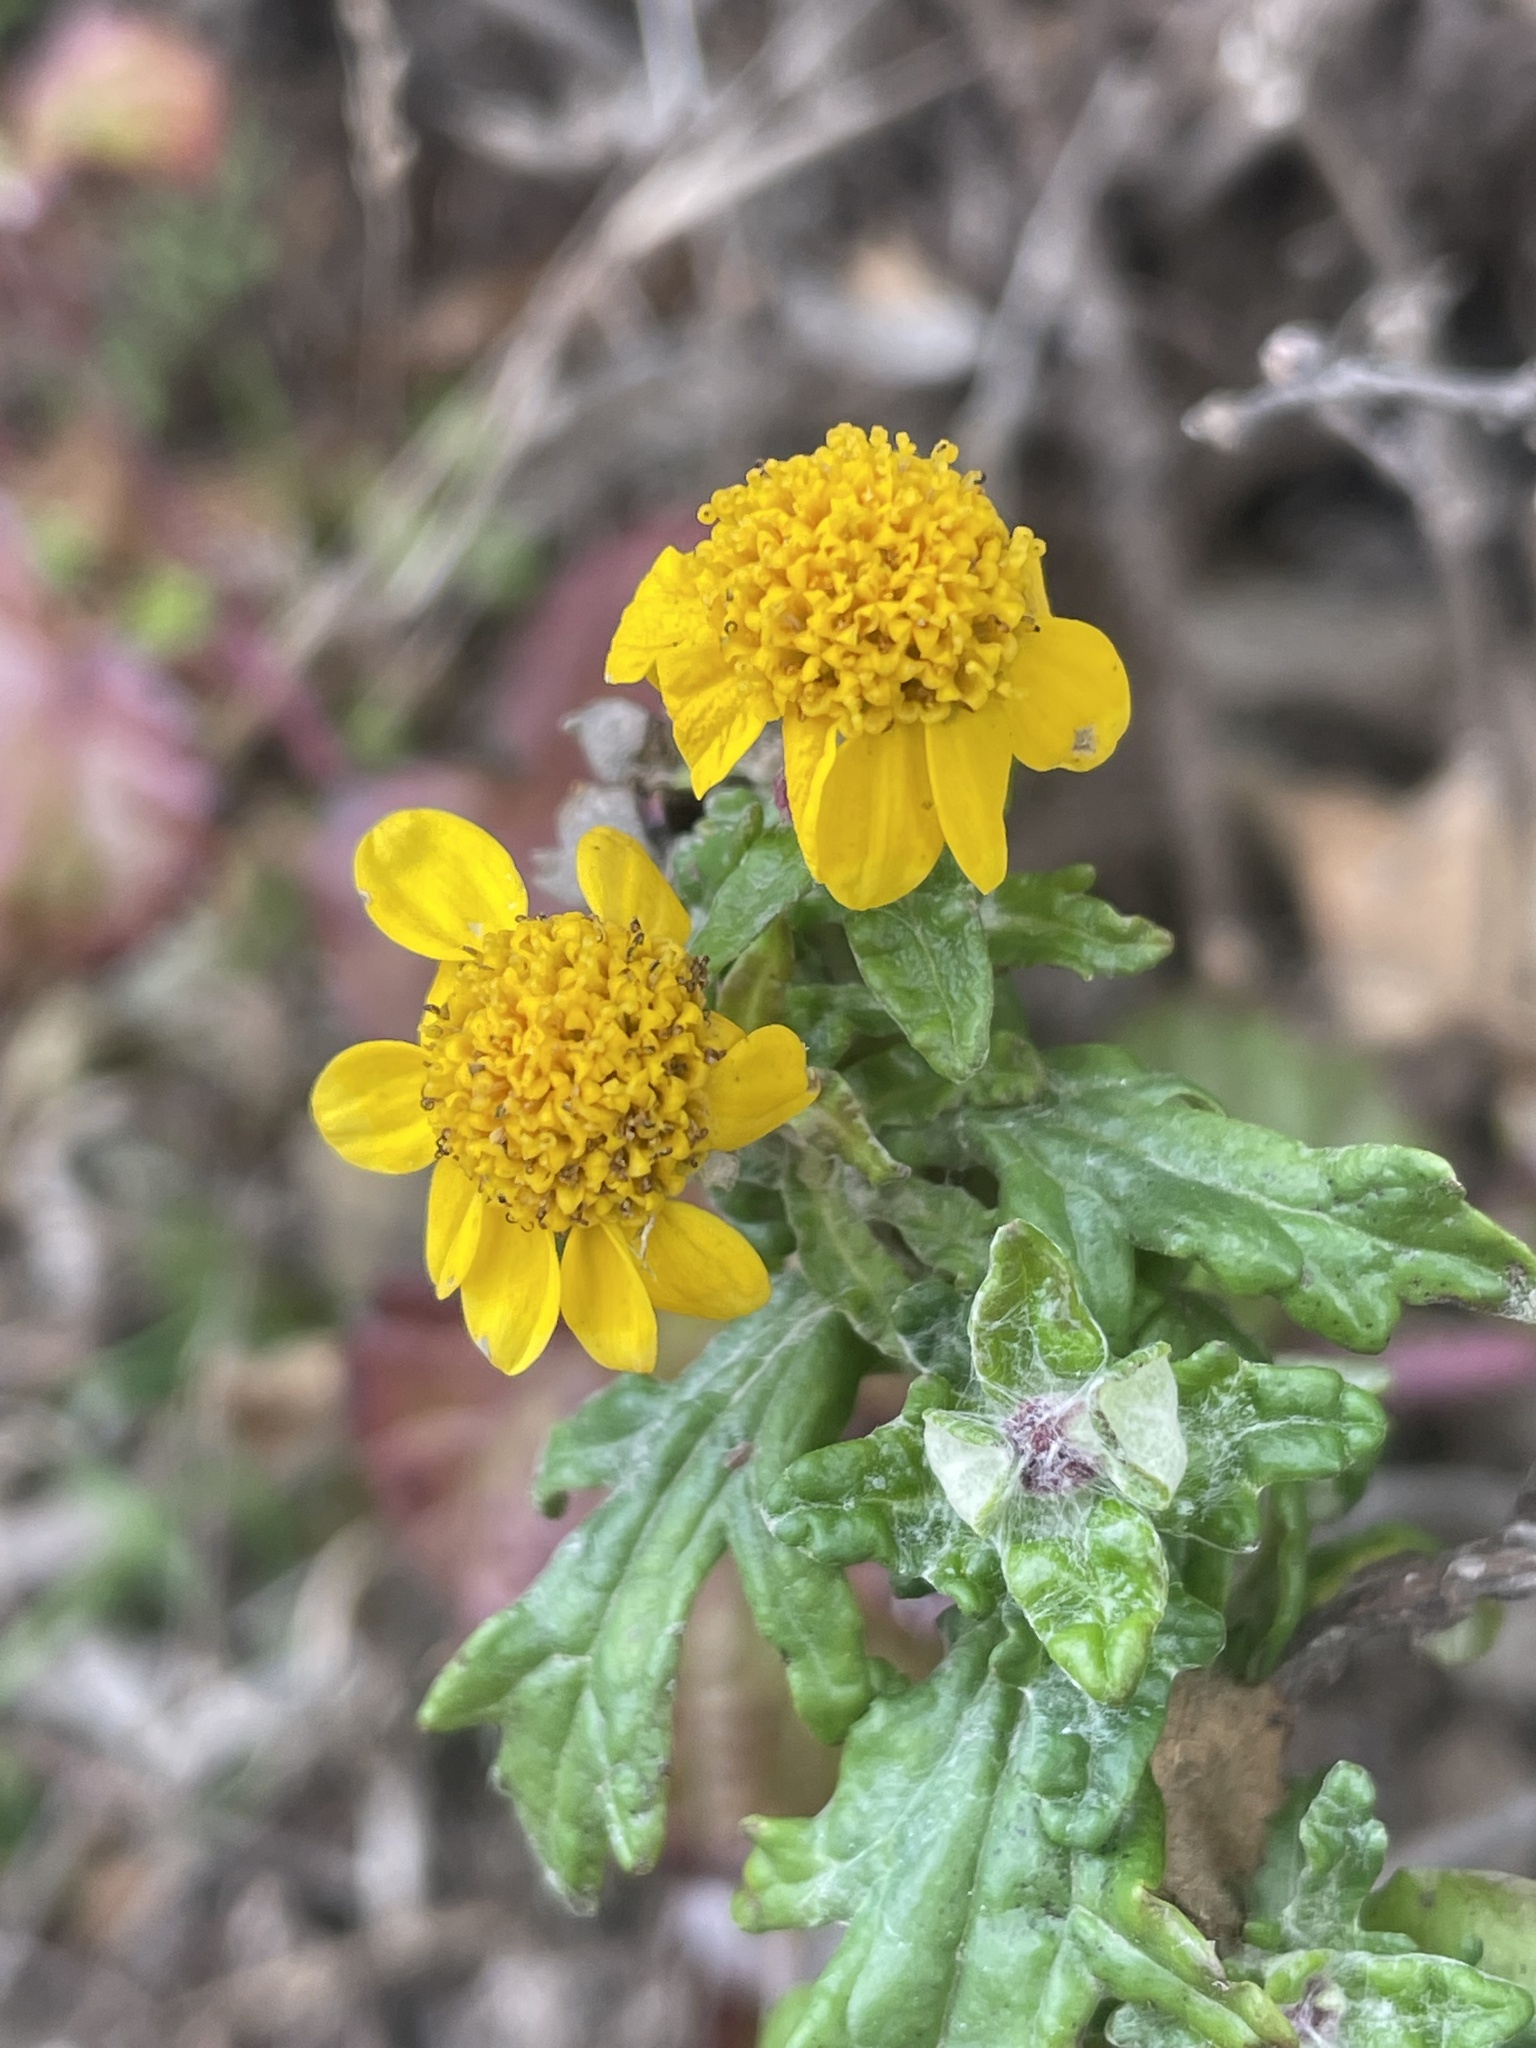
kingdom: Plantae
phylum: Tracheophyta
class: Magnoliopsida
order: Asterales
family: Asteraceae
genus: Eriophyllum
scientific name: Eriophyllum staechadifolium
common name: Lizardtail
